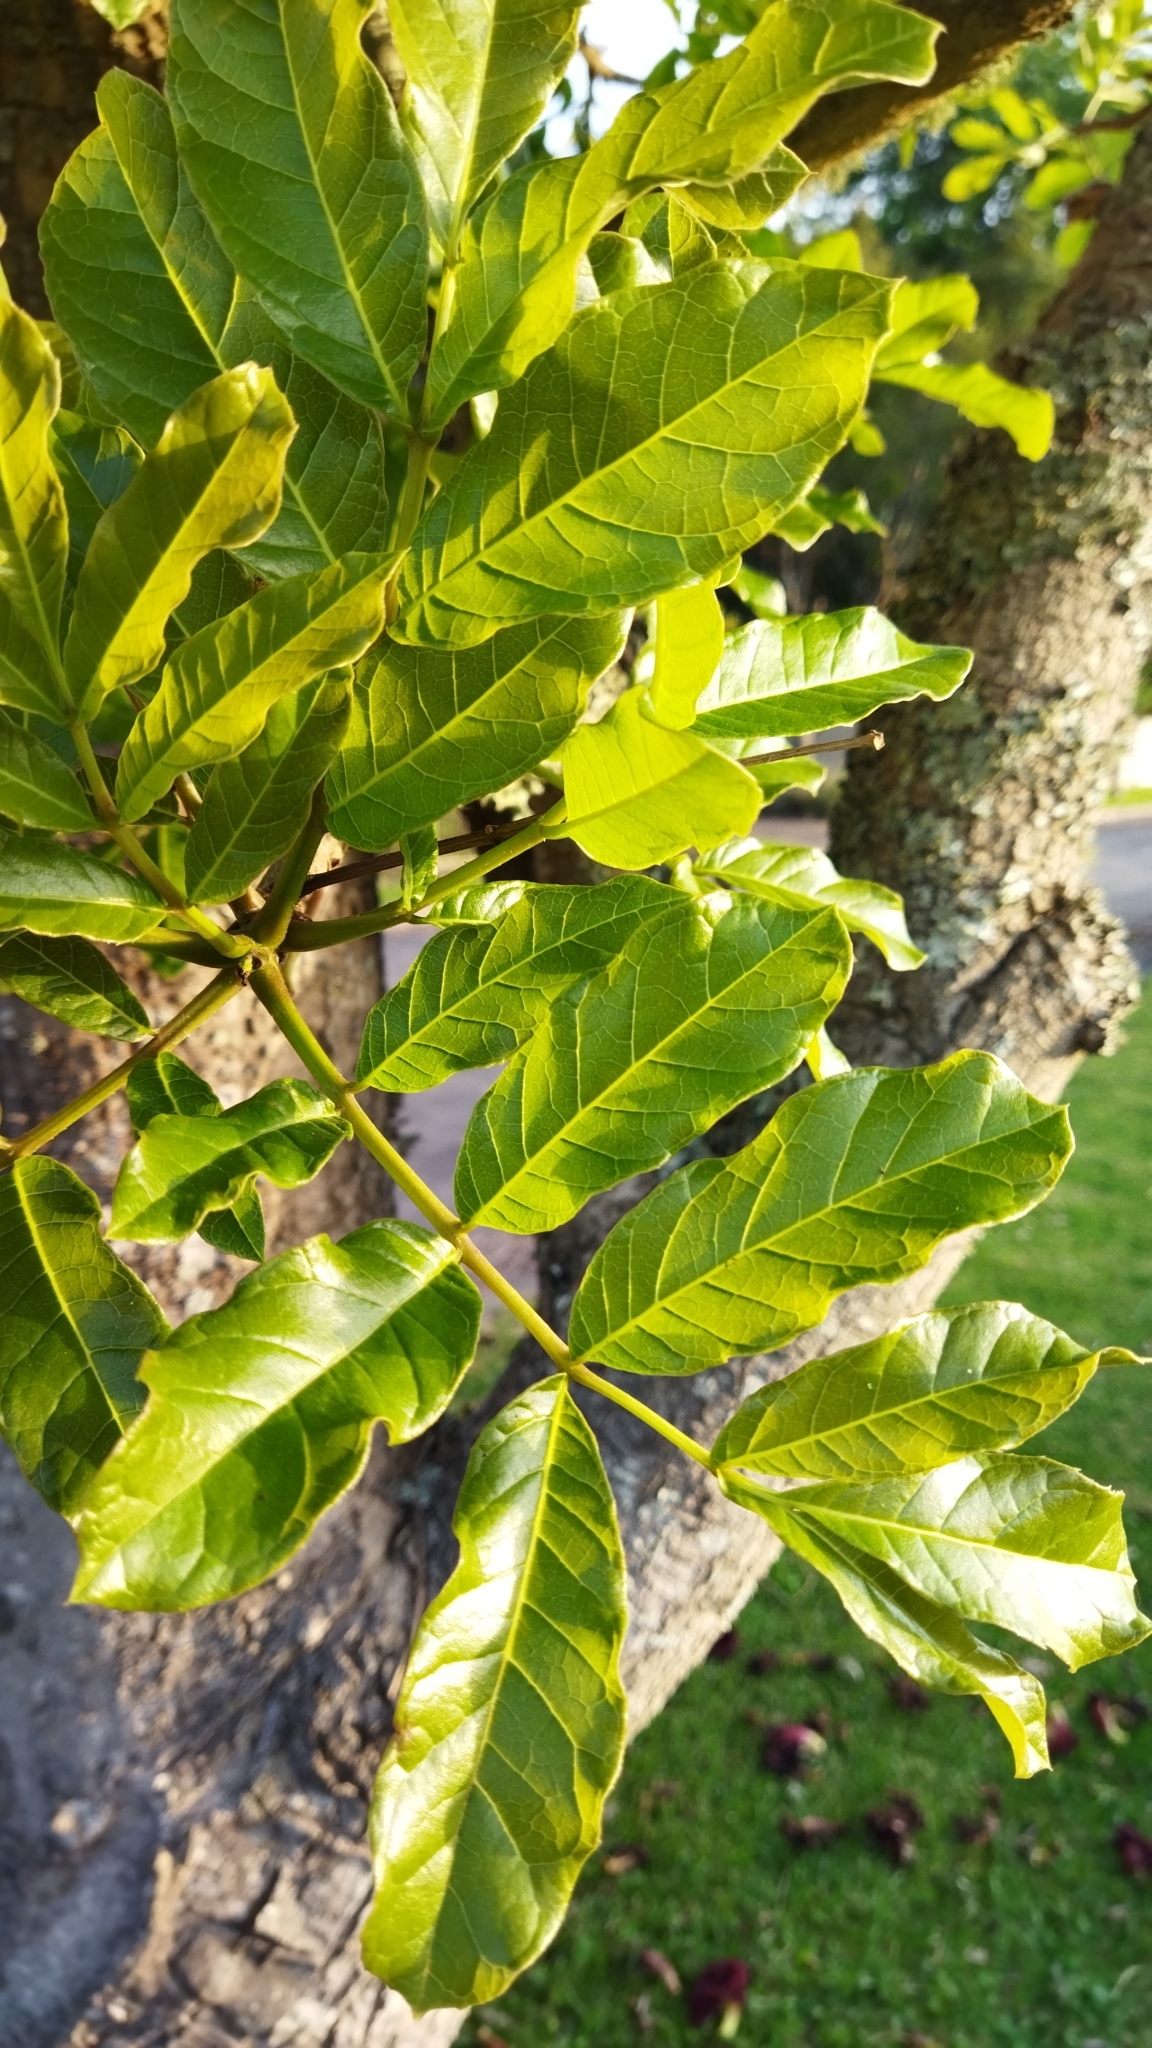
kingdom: Plantae
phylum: Tracheophyta
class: Magnoliopsida
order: Lamiales
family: Bignoniaceae
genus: Kigelia
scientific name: Kigelia africana
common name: Sausage tree
